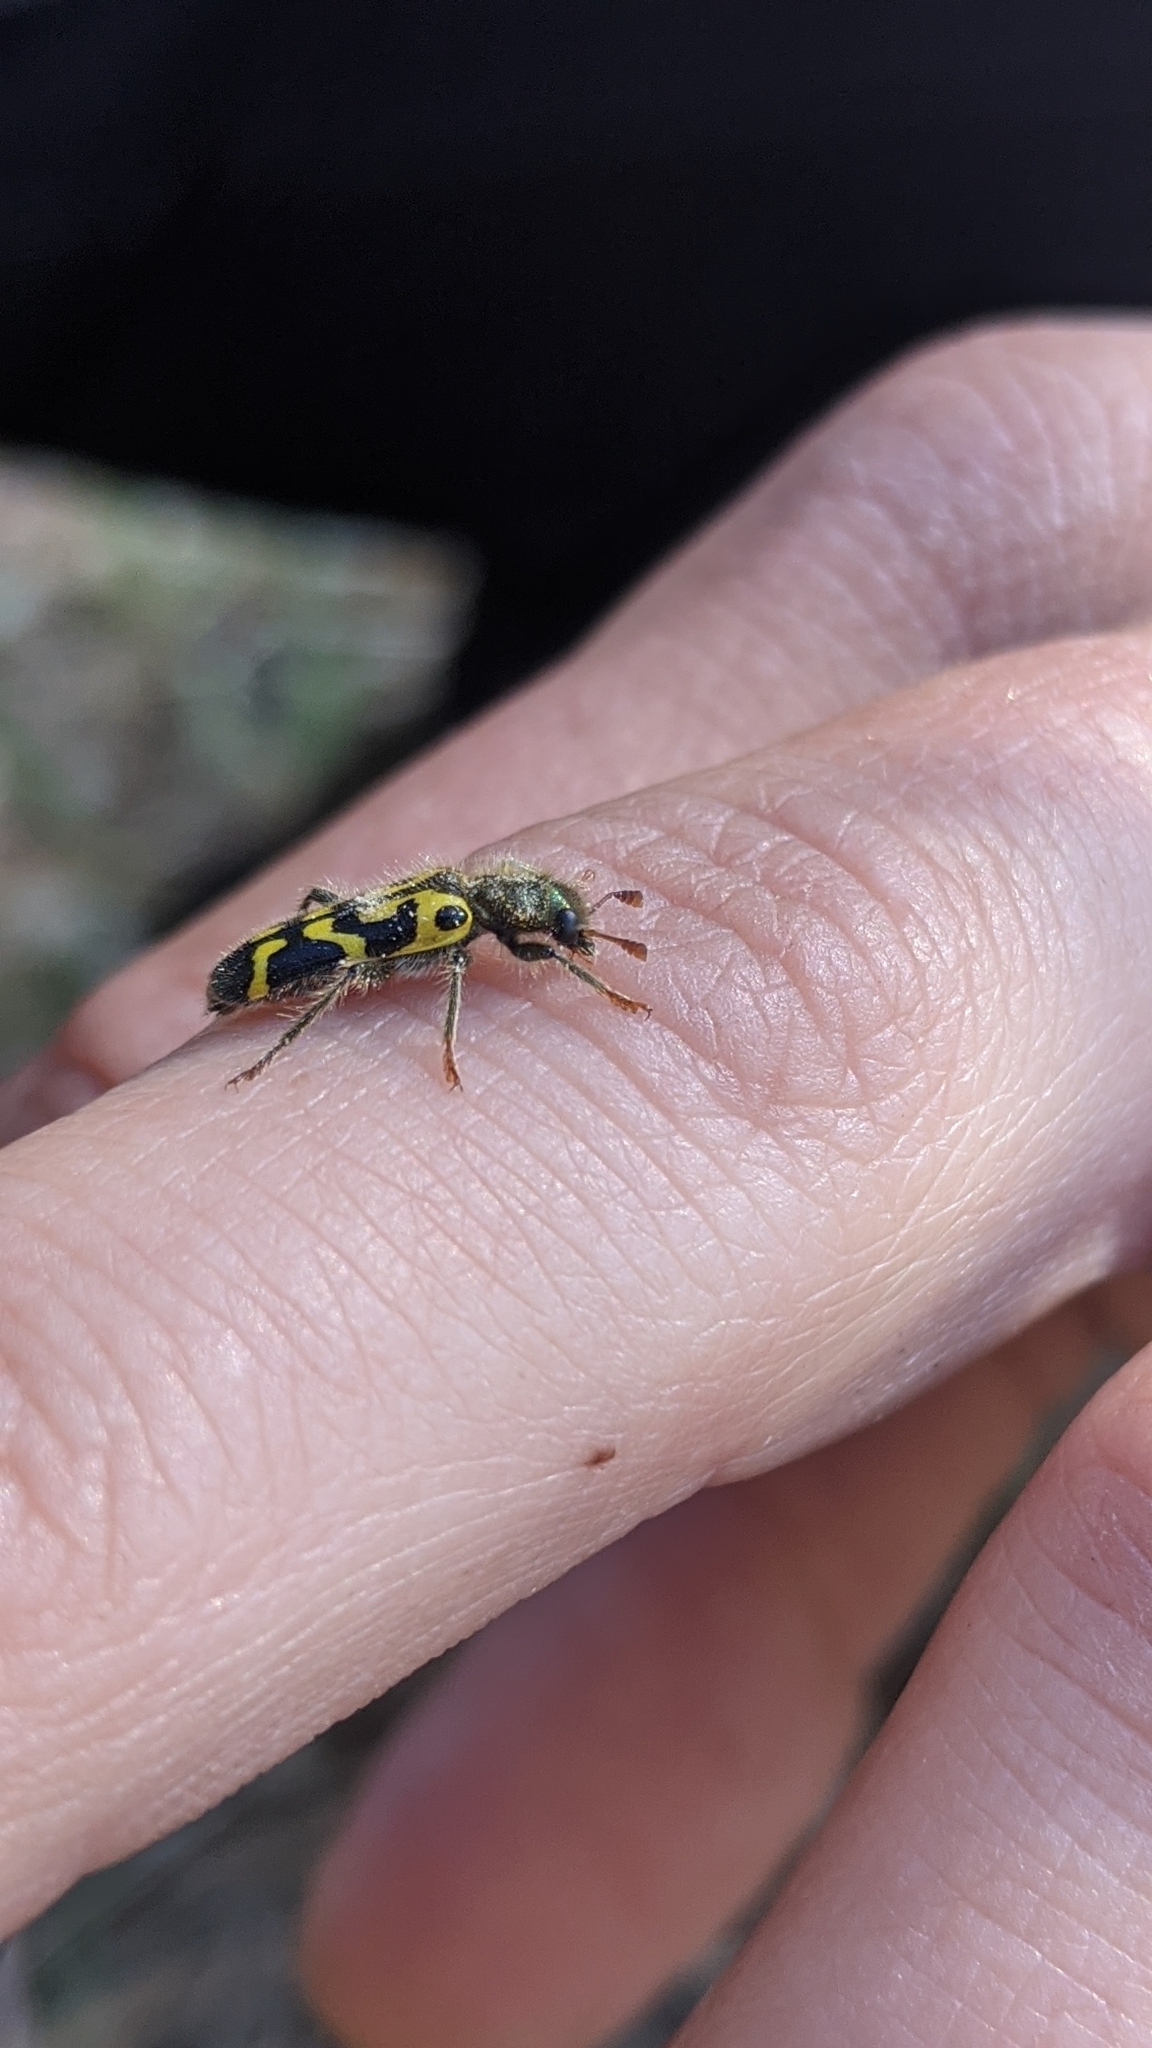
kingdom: Animalia
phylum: Arthropoda
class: Insecta
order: Coleoptera
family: Cleridae
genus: Trichodes
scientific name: Trichodes ornatus
